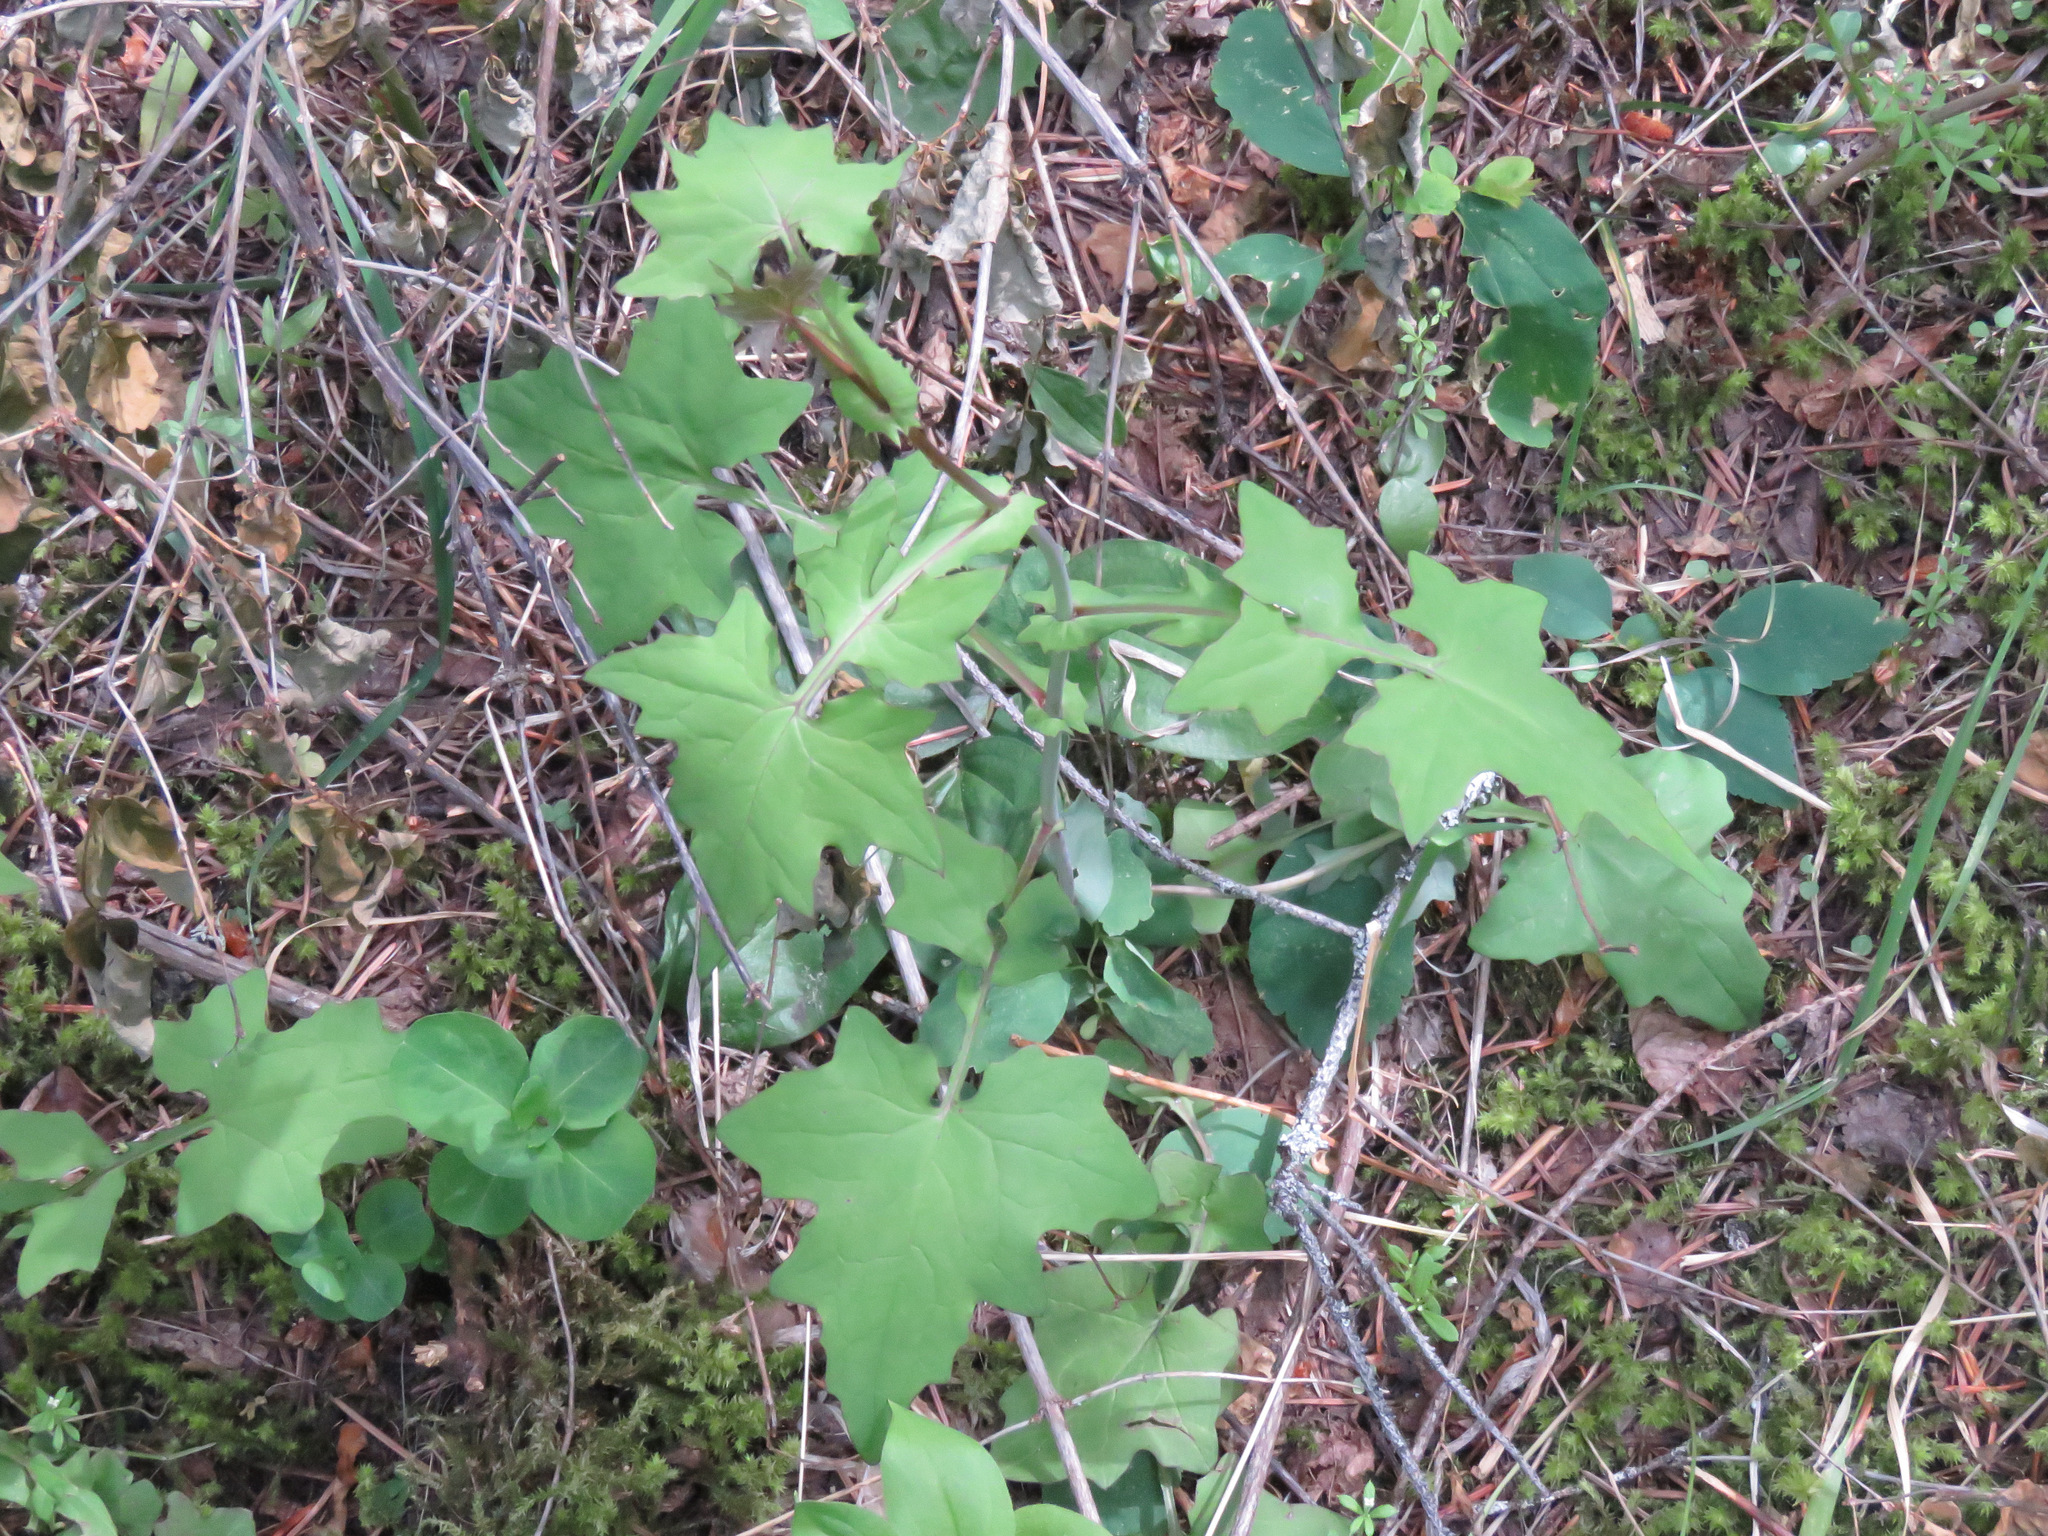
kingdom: Plantae
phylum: Tracheophyta
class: Magnoliopsida
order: Asterales
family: Asteraceae
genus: Mycelis
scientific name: Mycelis muralis
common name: Wall lettuce
